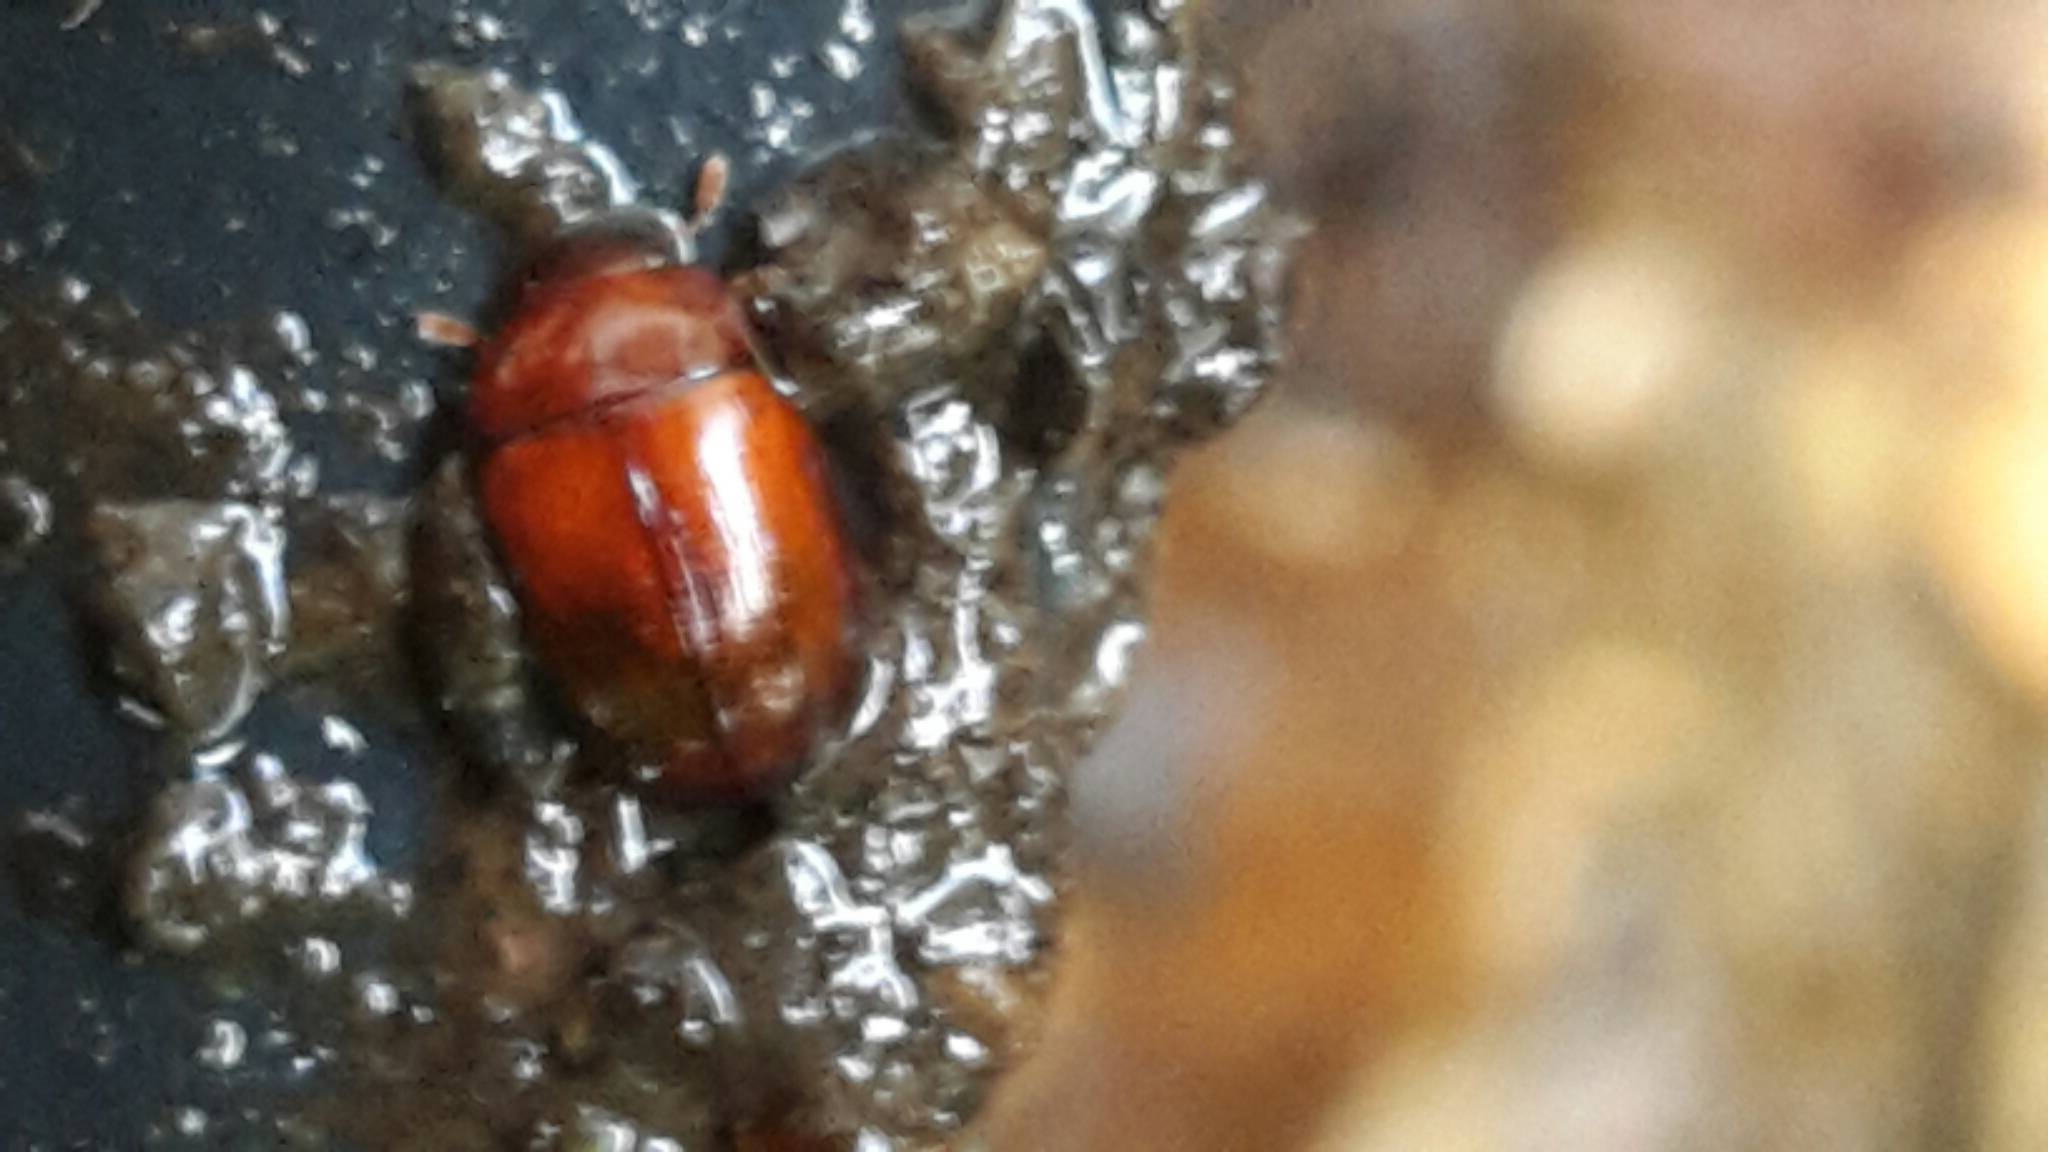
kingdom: Animalia
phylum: Arthropoda
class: Insecta
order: Coleoptera
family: Hydrophilidae
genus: Dactylosternum
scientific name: Dactylosternum abdominale
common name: Water scavenger beetle
